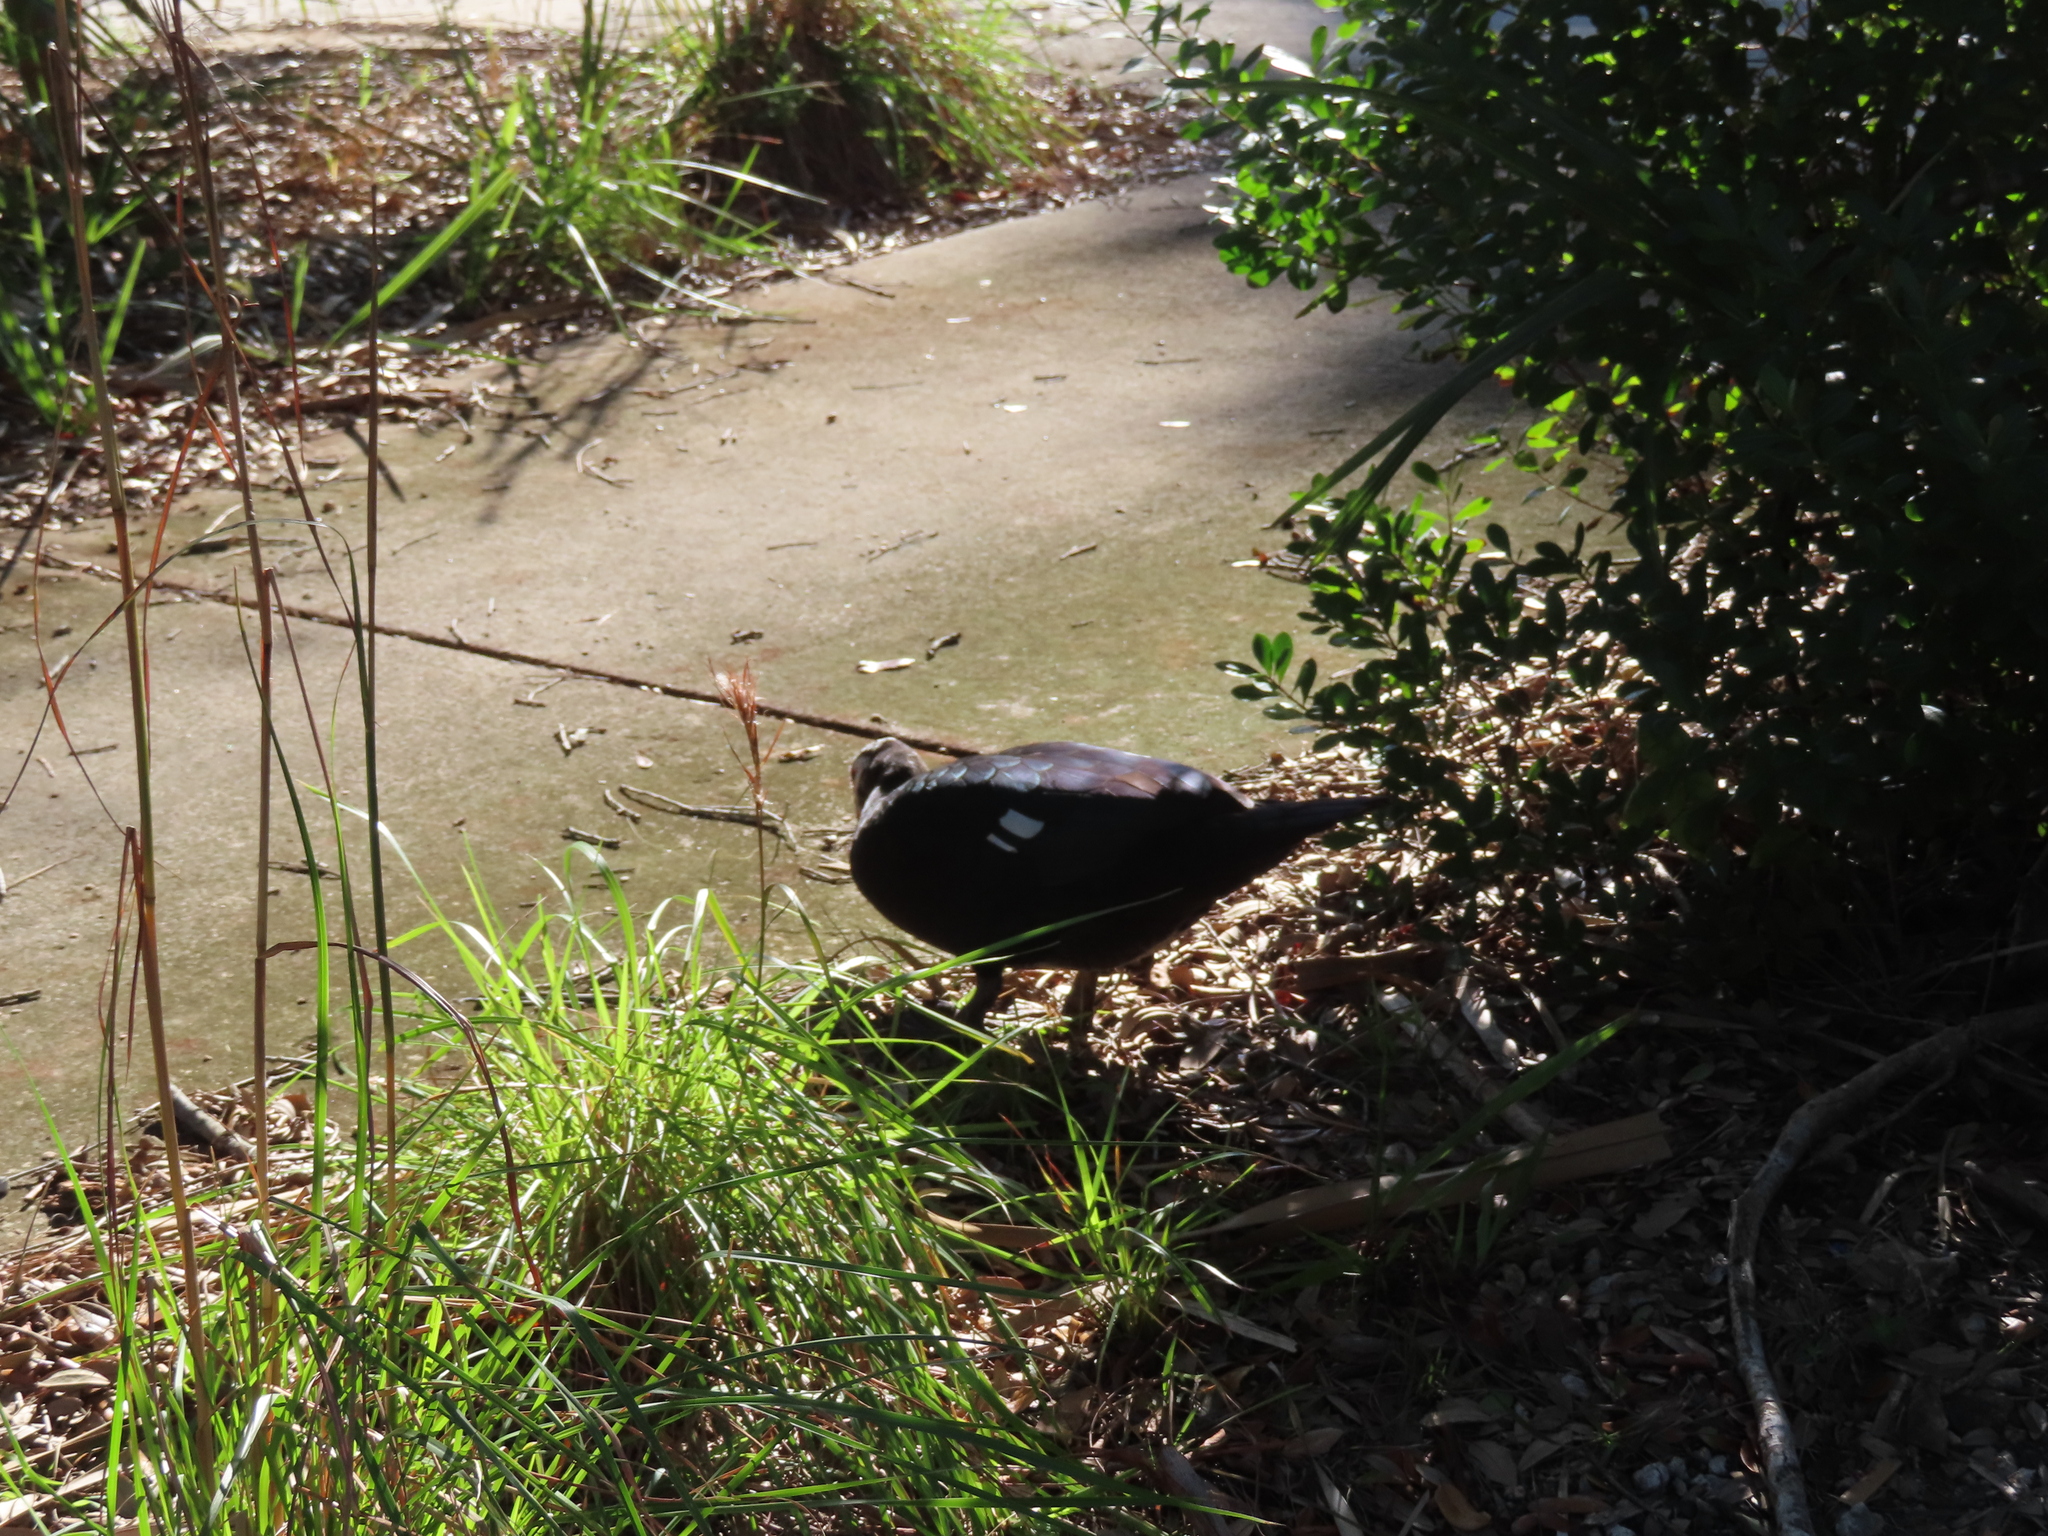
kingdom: Animalia
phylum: Chordata
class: Aves
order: Anseriformes
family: Anatidae
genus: Cairina
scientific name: Cairina moschata
